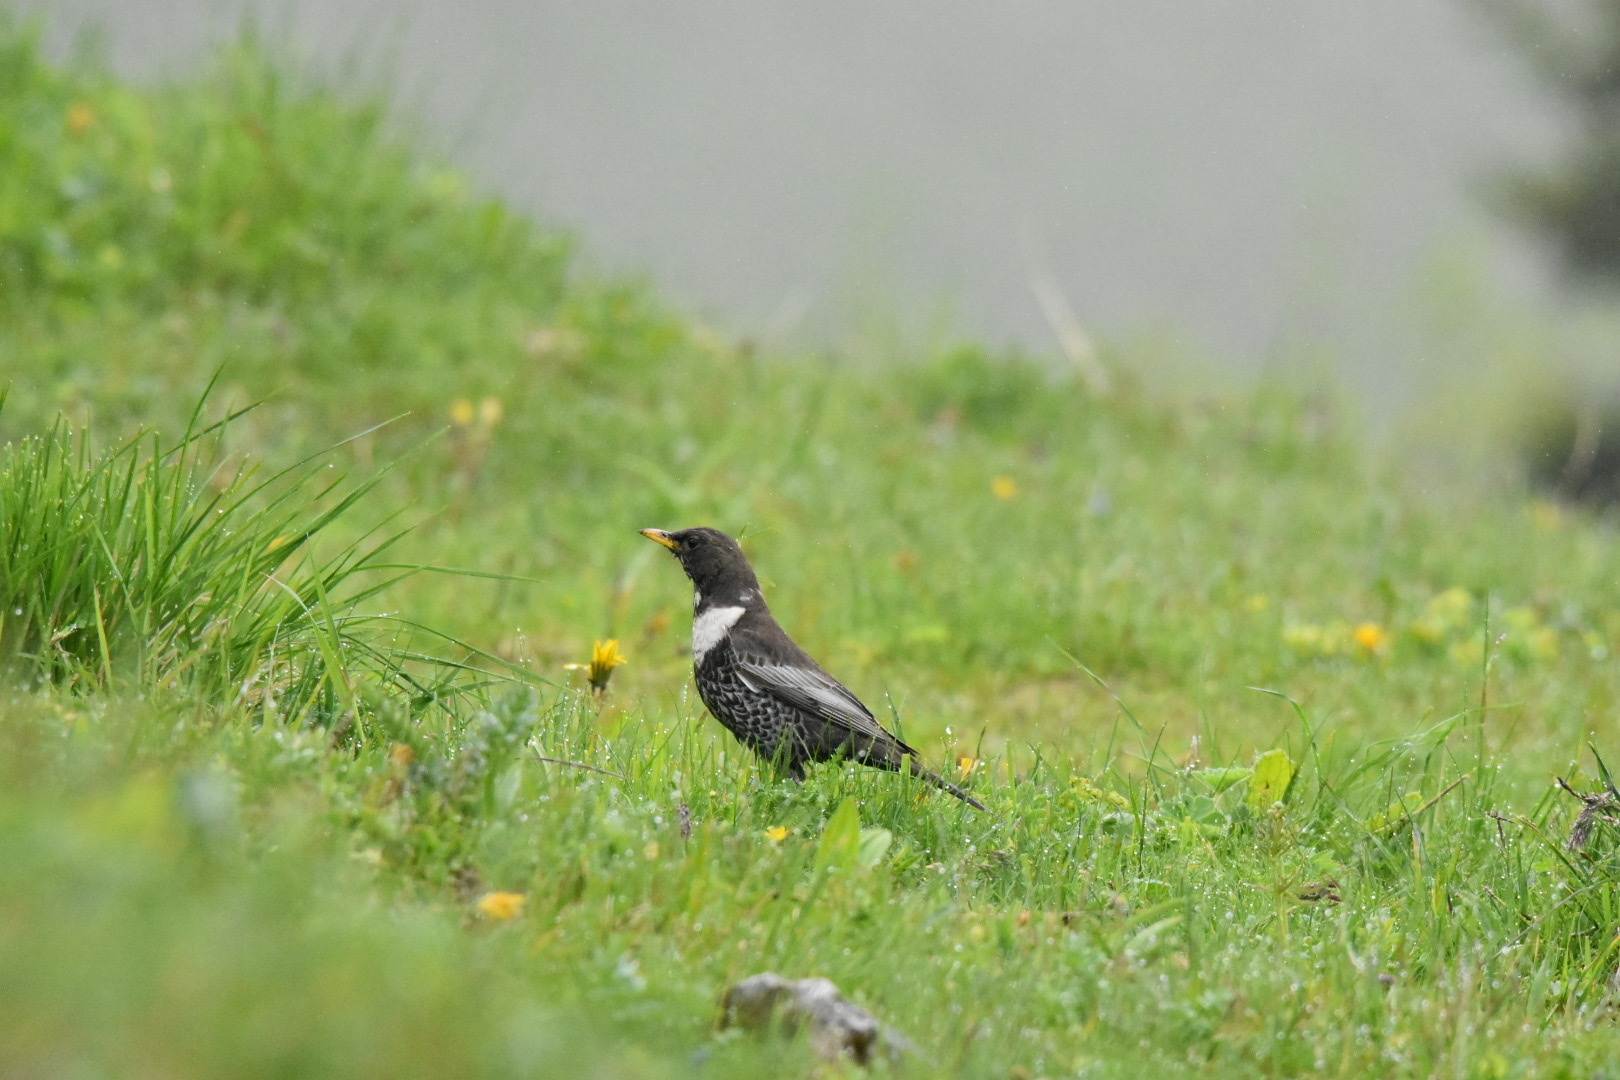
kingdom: Animalia
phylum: Chordata
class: Aves
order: Passeriformes
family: Turdidae
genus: Turdus
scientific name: Turdus torquatus
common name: Ring ouzel
